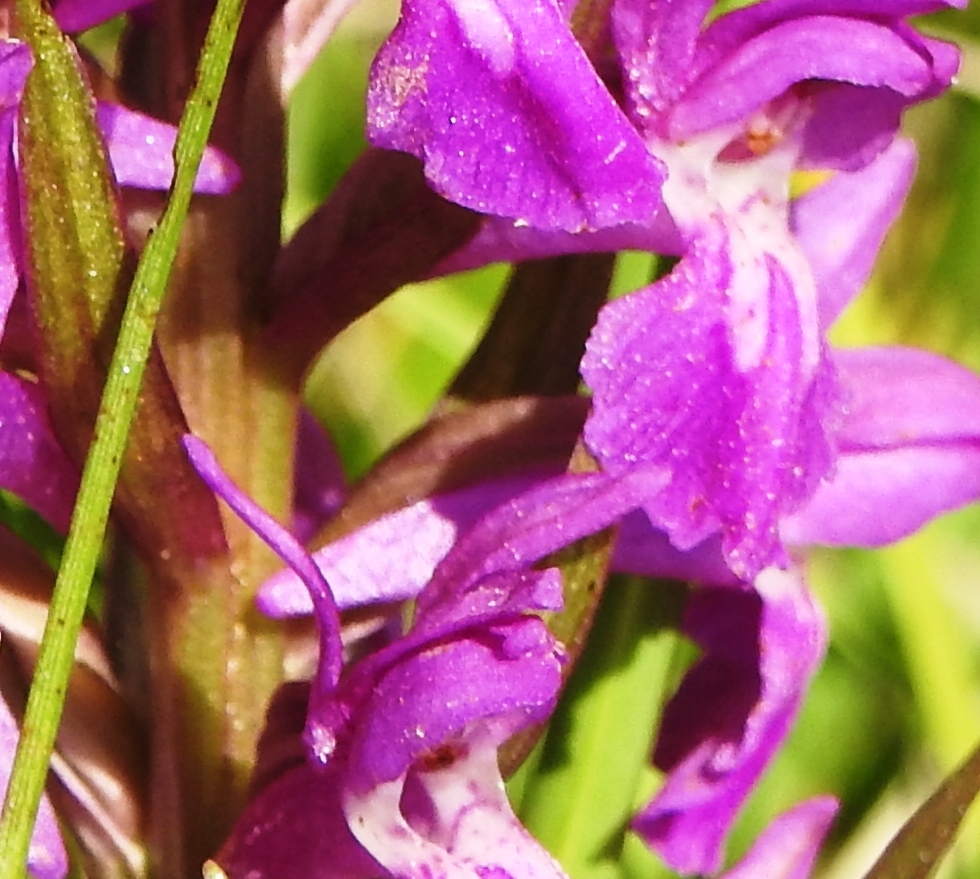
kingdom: Plantae
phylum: Tracheophyta
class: Liliopsida
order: Asparagales
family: Orchidaceae
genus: Dactylorhiza
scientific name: Dactylorhiza salina
